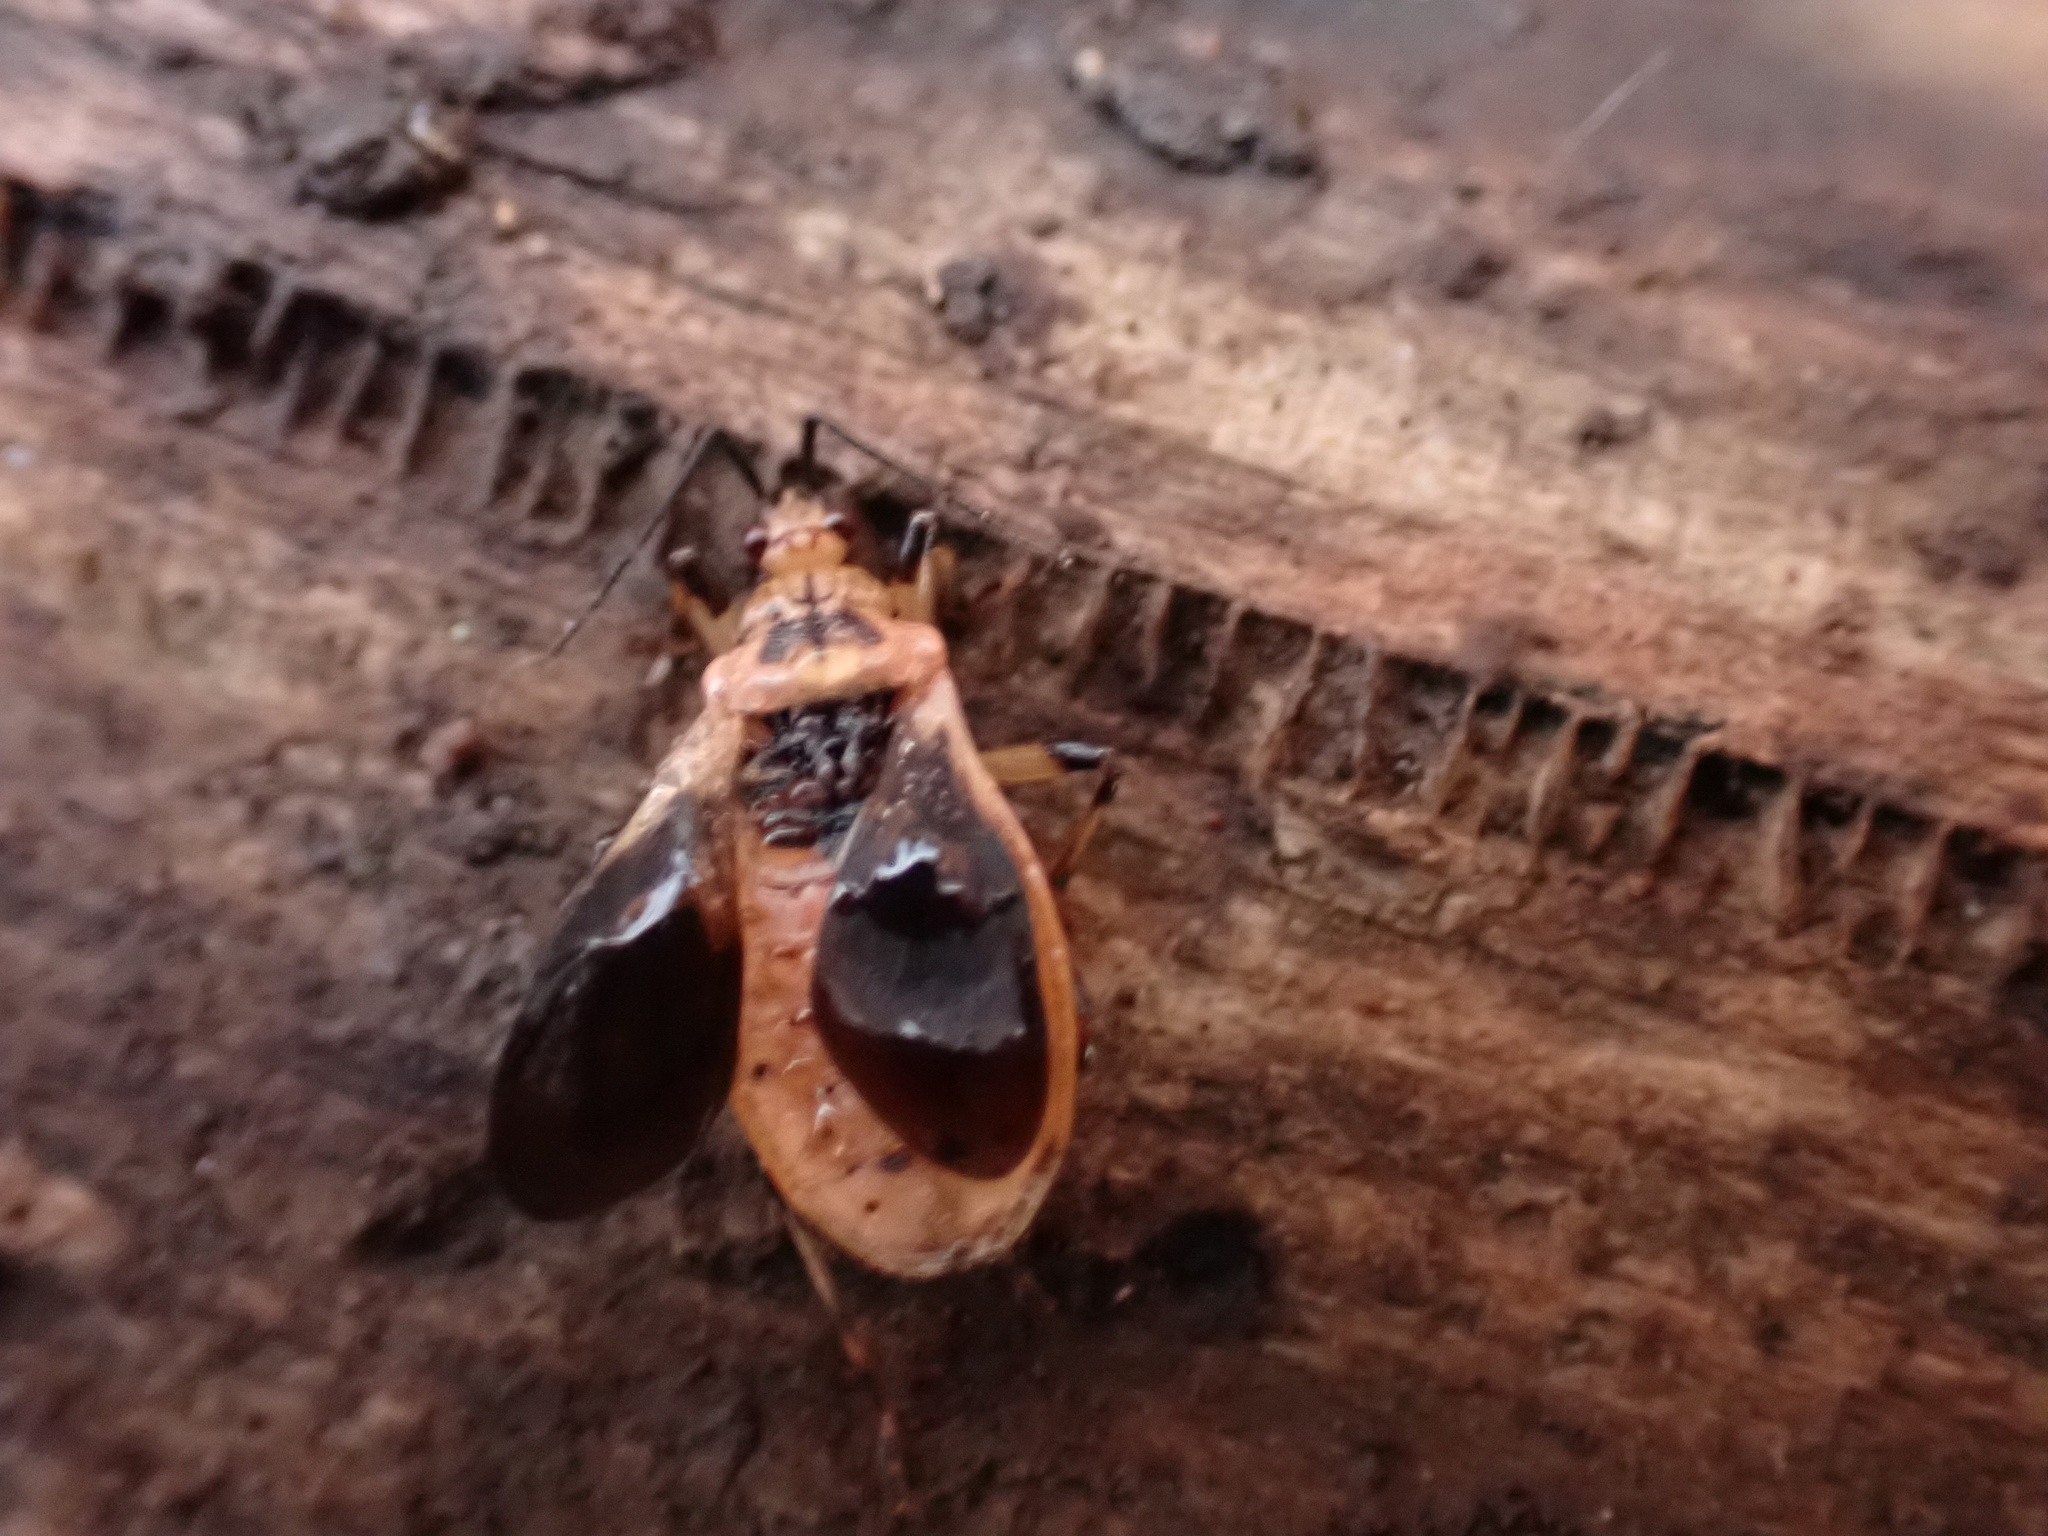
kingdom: Animalia
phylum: Arthropoda
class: Insecta
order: Hemiptera
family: Reduviidae
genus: Rhiginia
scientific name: Rhiginia cruciata
